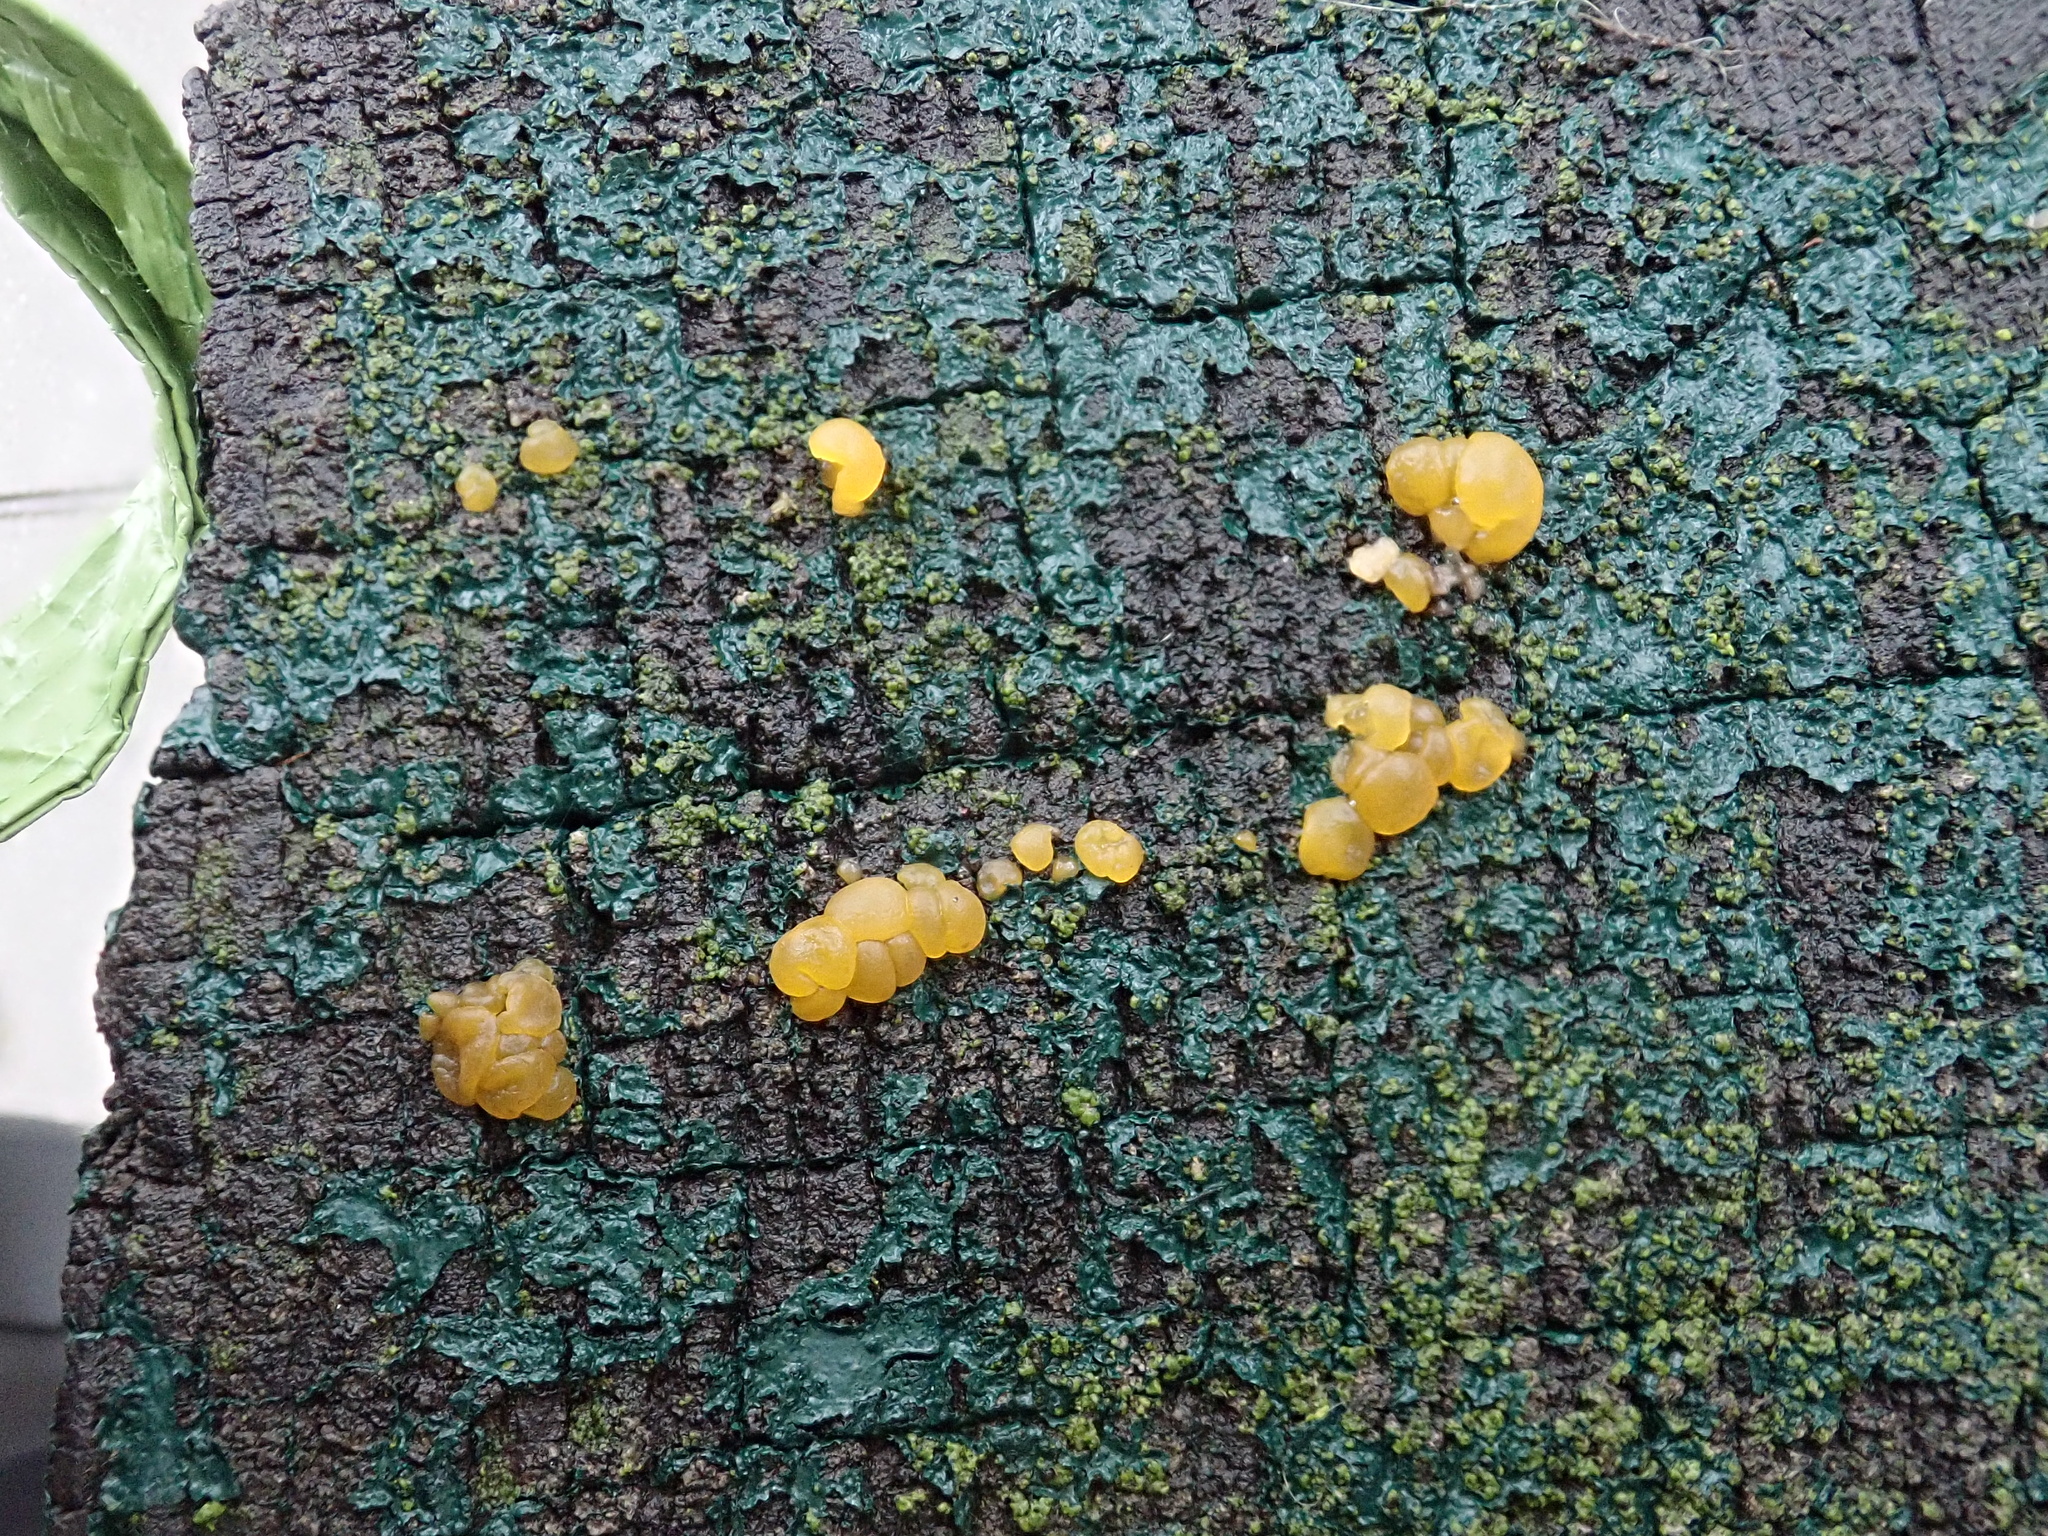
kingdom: Fungi
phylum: Basidiomycota
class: Dacrymycetes
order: Dacrymycetales
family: Dacrymycetaceae
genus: Dacrymyces
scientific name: Dacrymyces stillatus
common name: Common jelly spot
